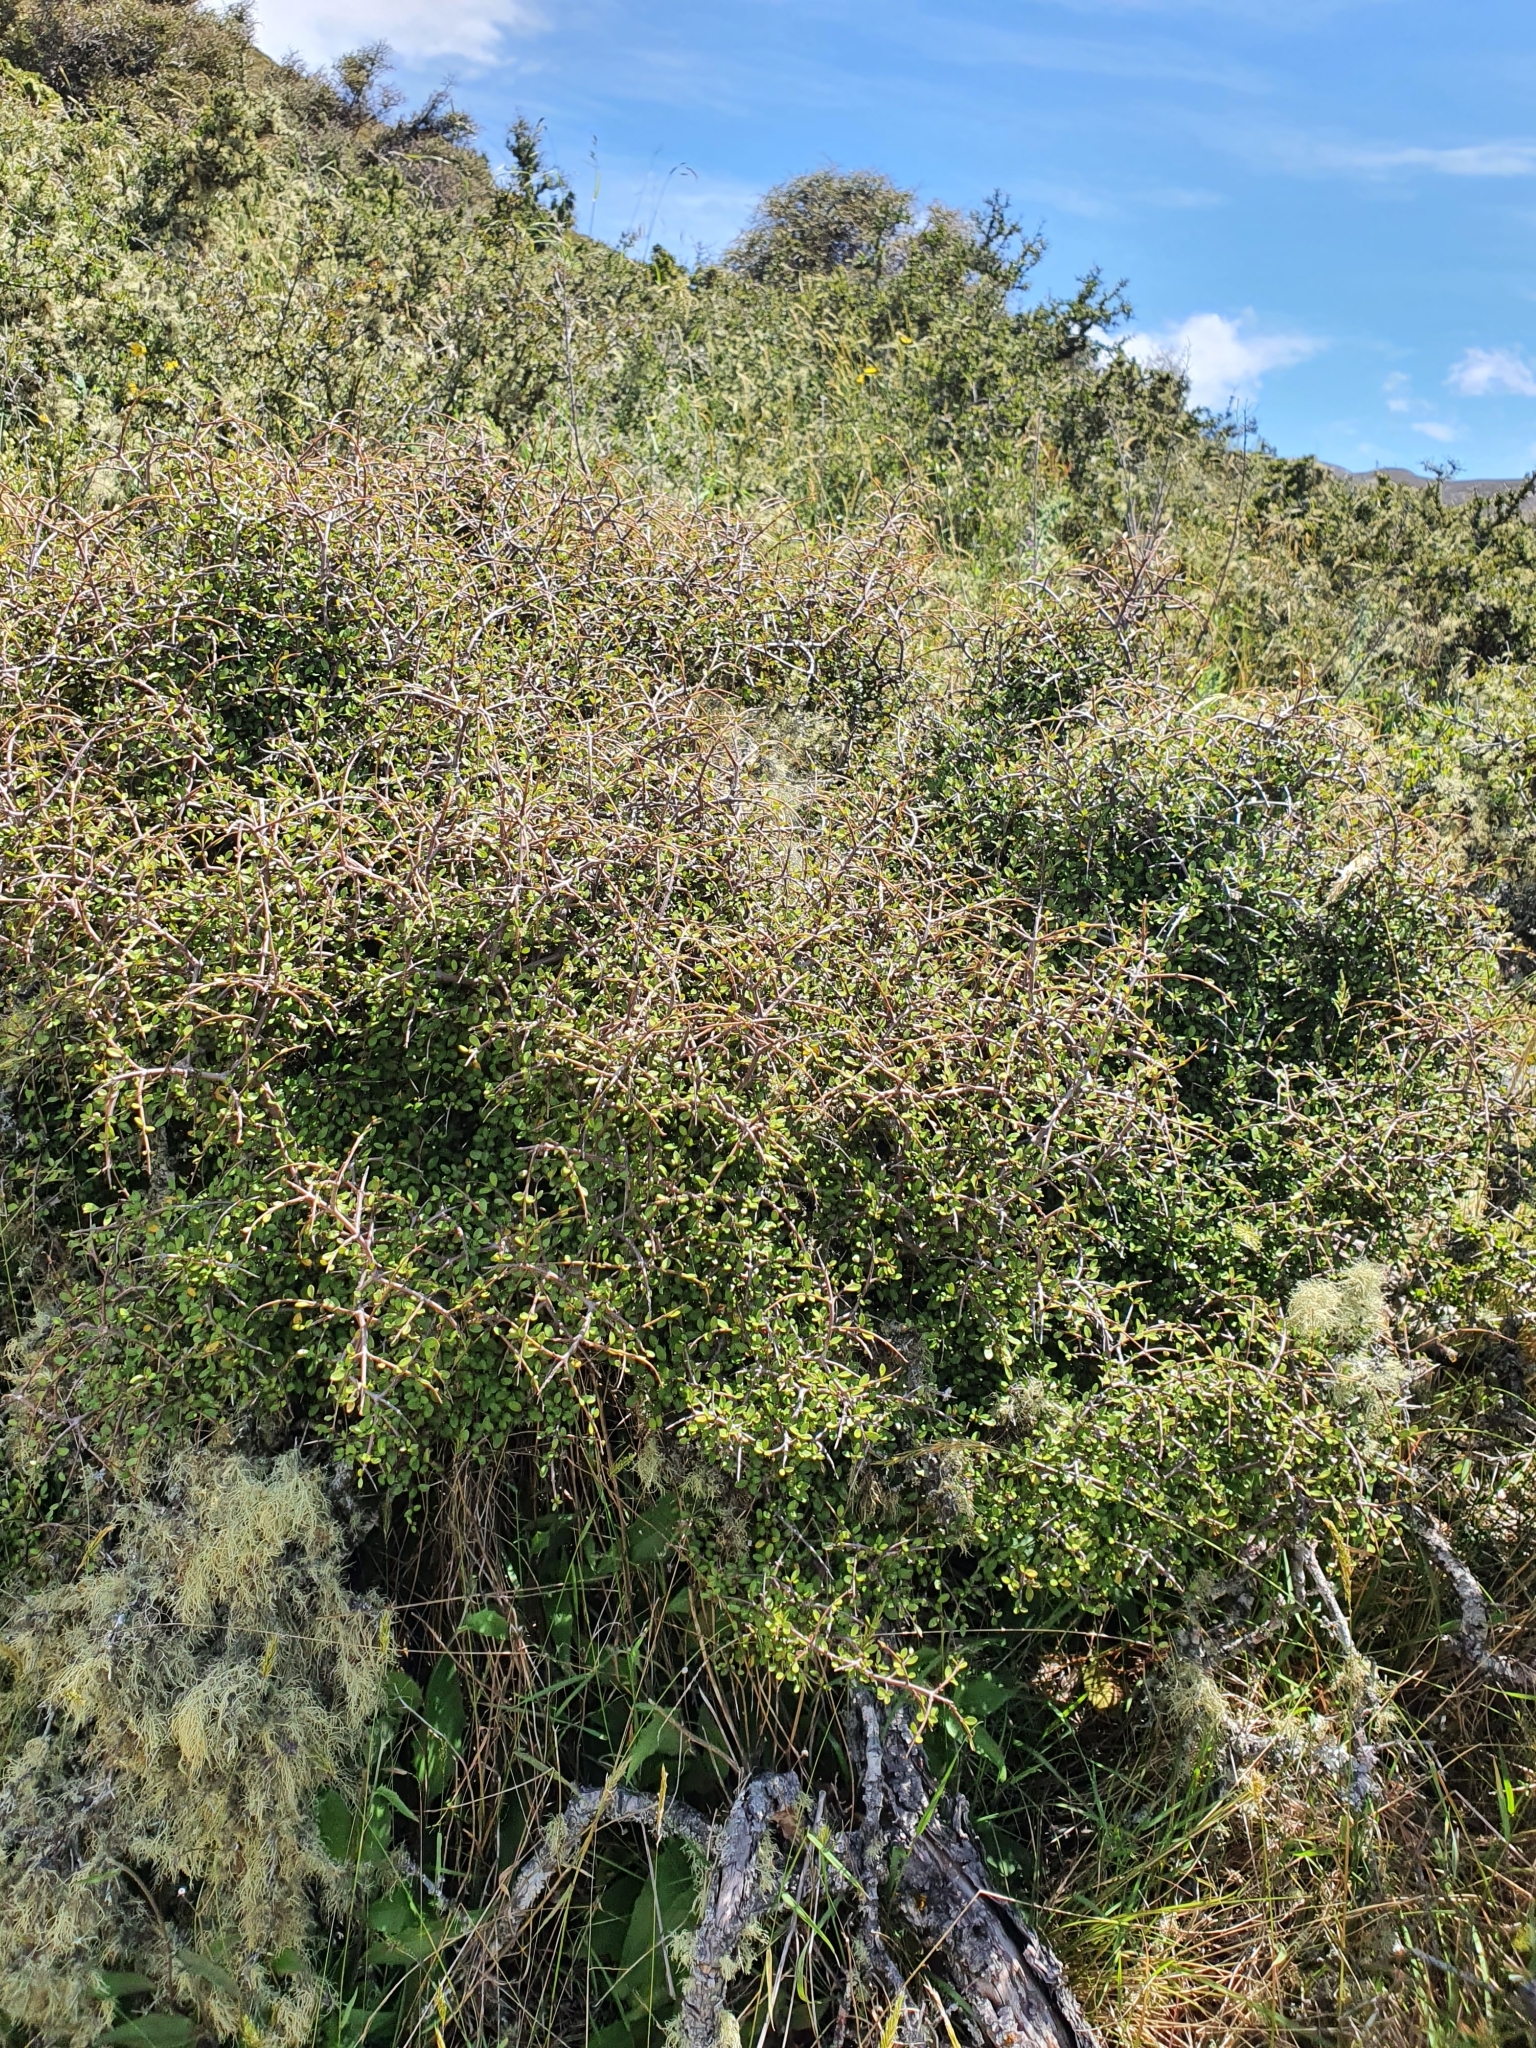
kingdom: Plantae
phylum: Tracheophyta
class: Magnoliopsida
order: Oxalidales
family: Elaeocarpaceae
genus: Aristotelia
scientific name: Aristotelia fruticosa
